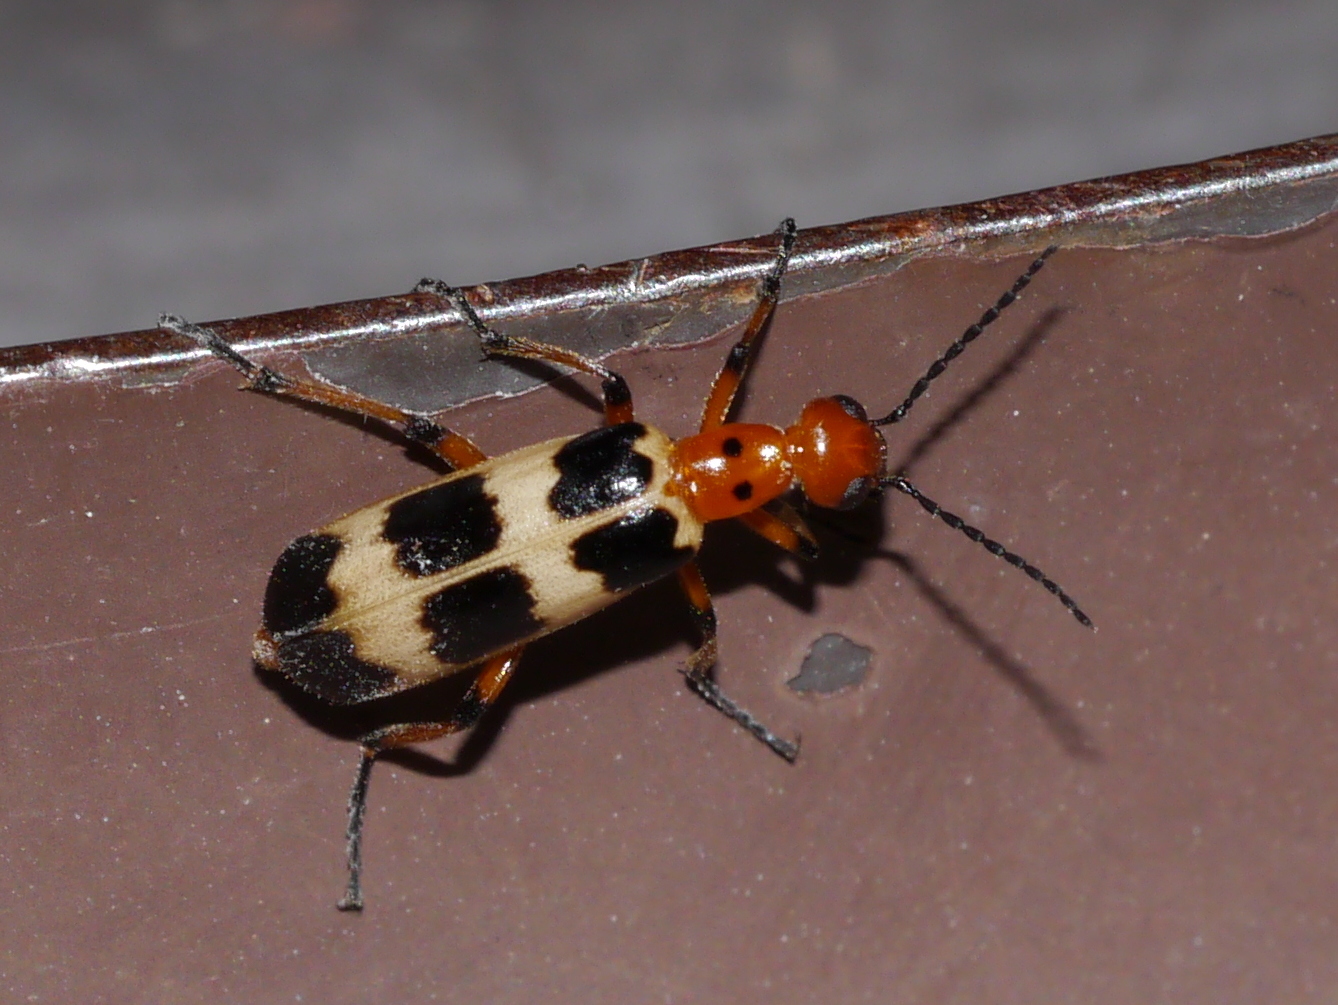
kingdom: Animalia
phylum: Arthropoda
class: Insecta
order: Coleoptera
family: Meloidae
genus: Pyrota
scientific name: Pyrota palpalis
